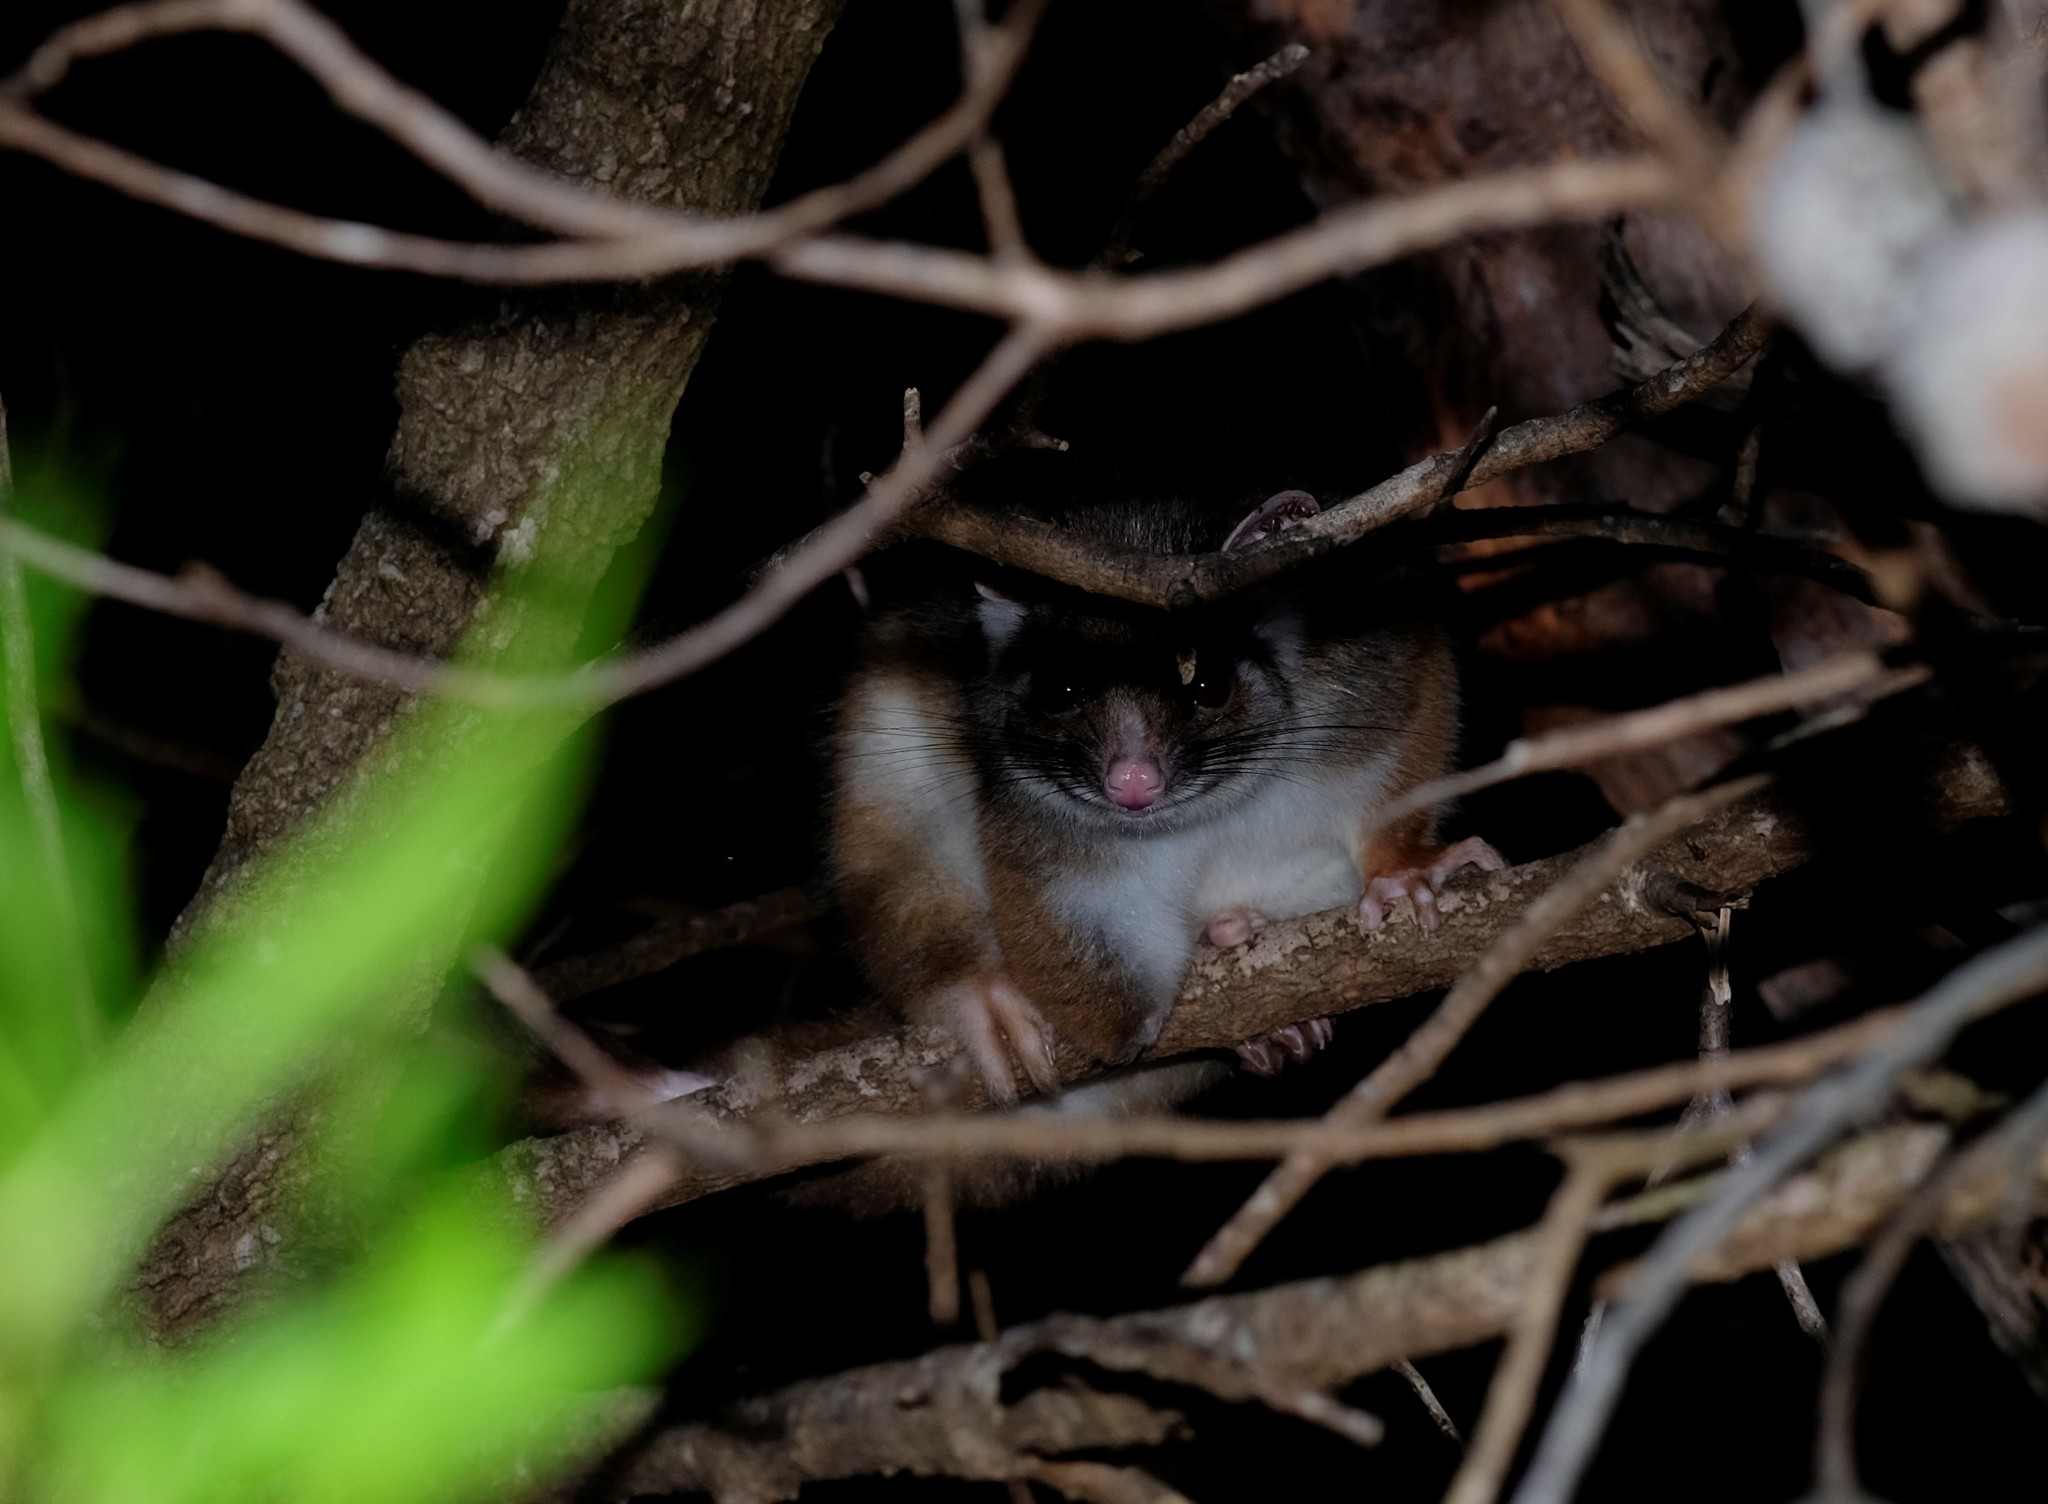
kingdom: Animalia
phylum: Chordata
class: Mammalia
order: Diprotodontia
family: Pseudocheiridae
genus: Pseudocheirus
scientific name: Pseudocheirus peregrinus
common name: Common ringtail possum
